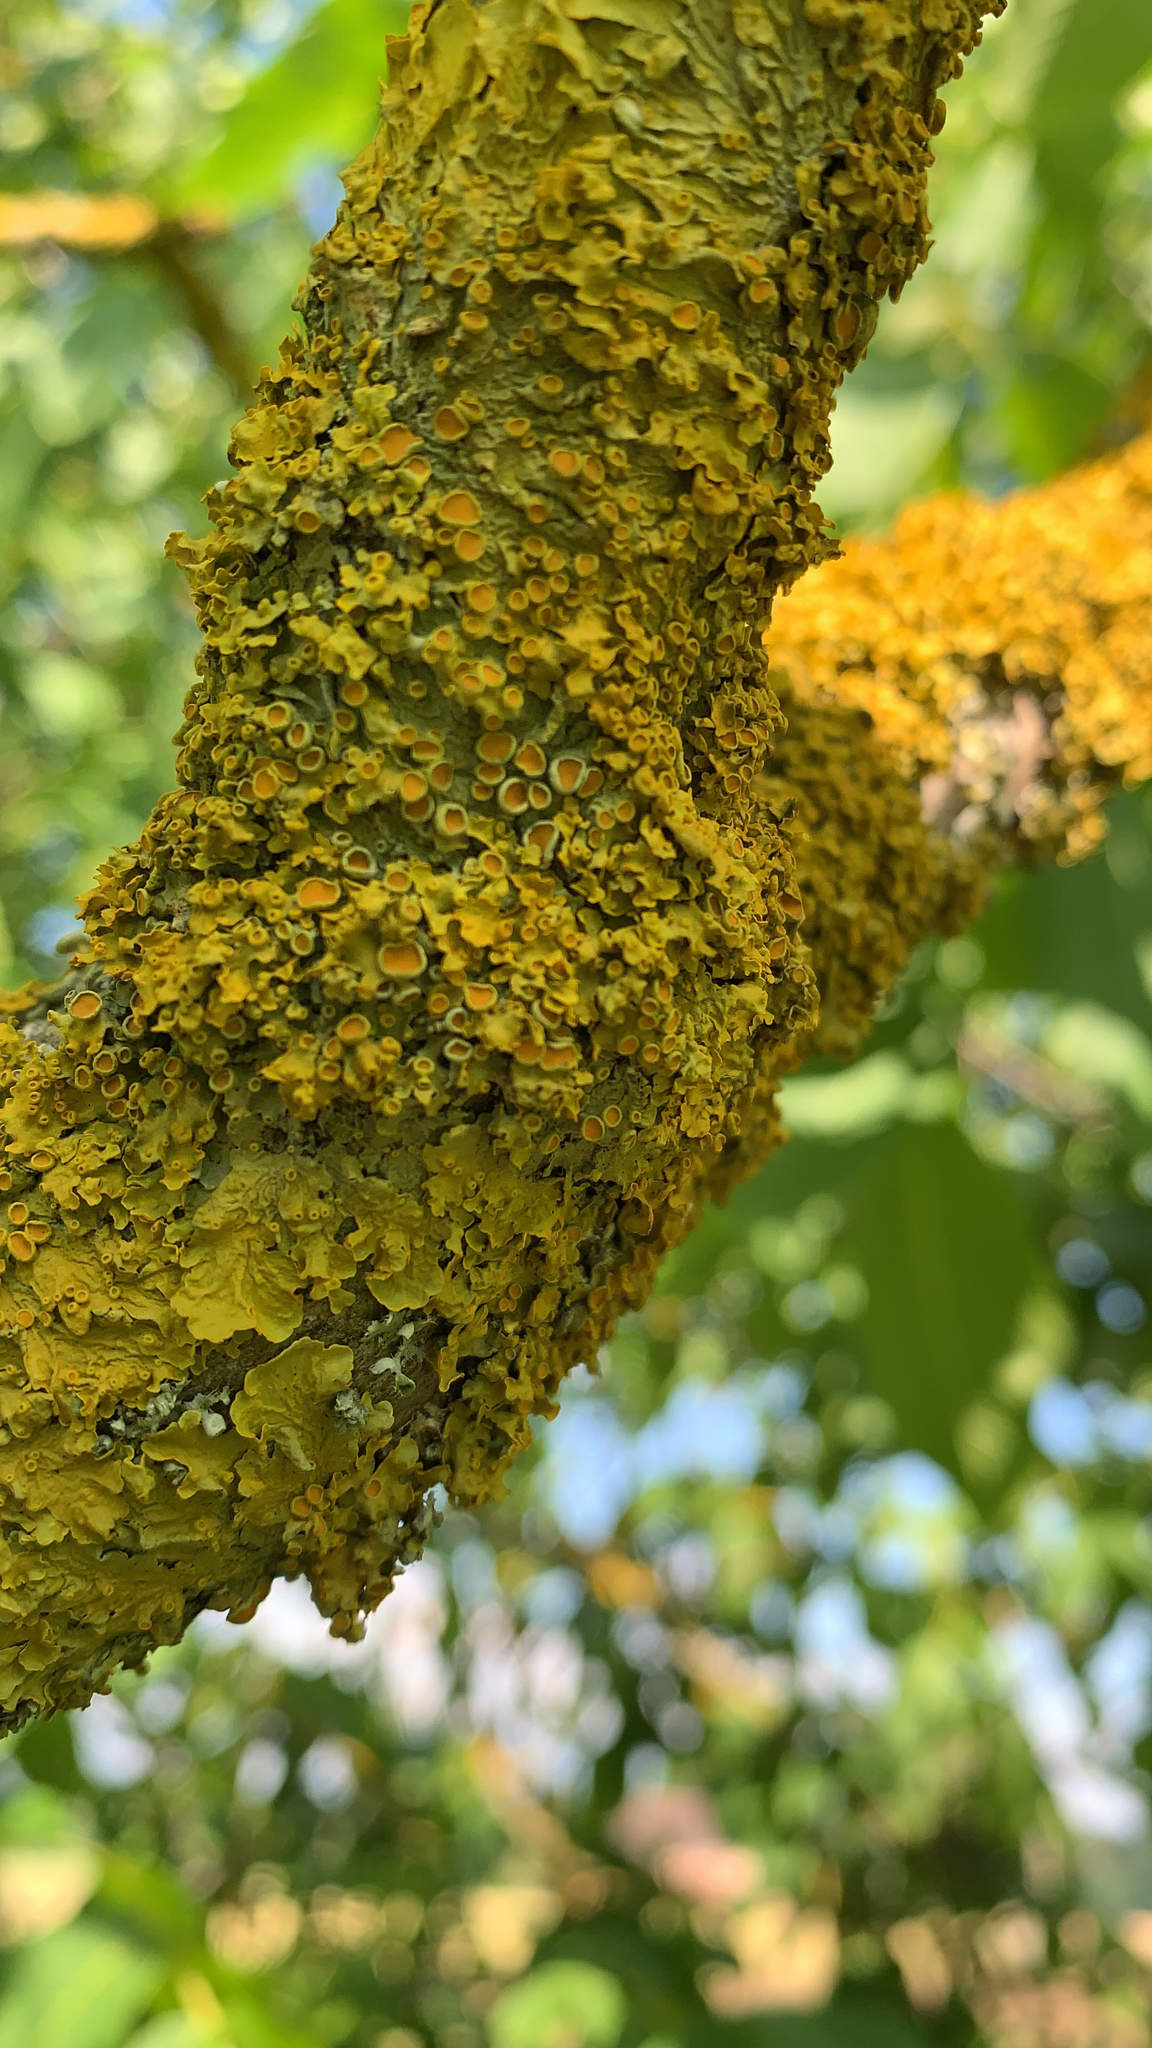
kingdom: Fungi
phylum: Ascomycota
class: Lecanoromycetes
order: Teloschistales
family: Teloschistaceae
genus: Xanthoria
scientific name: Xanthoria parietina
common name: Common orange lichen
